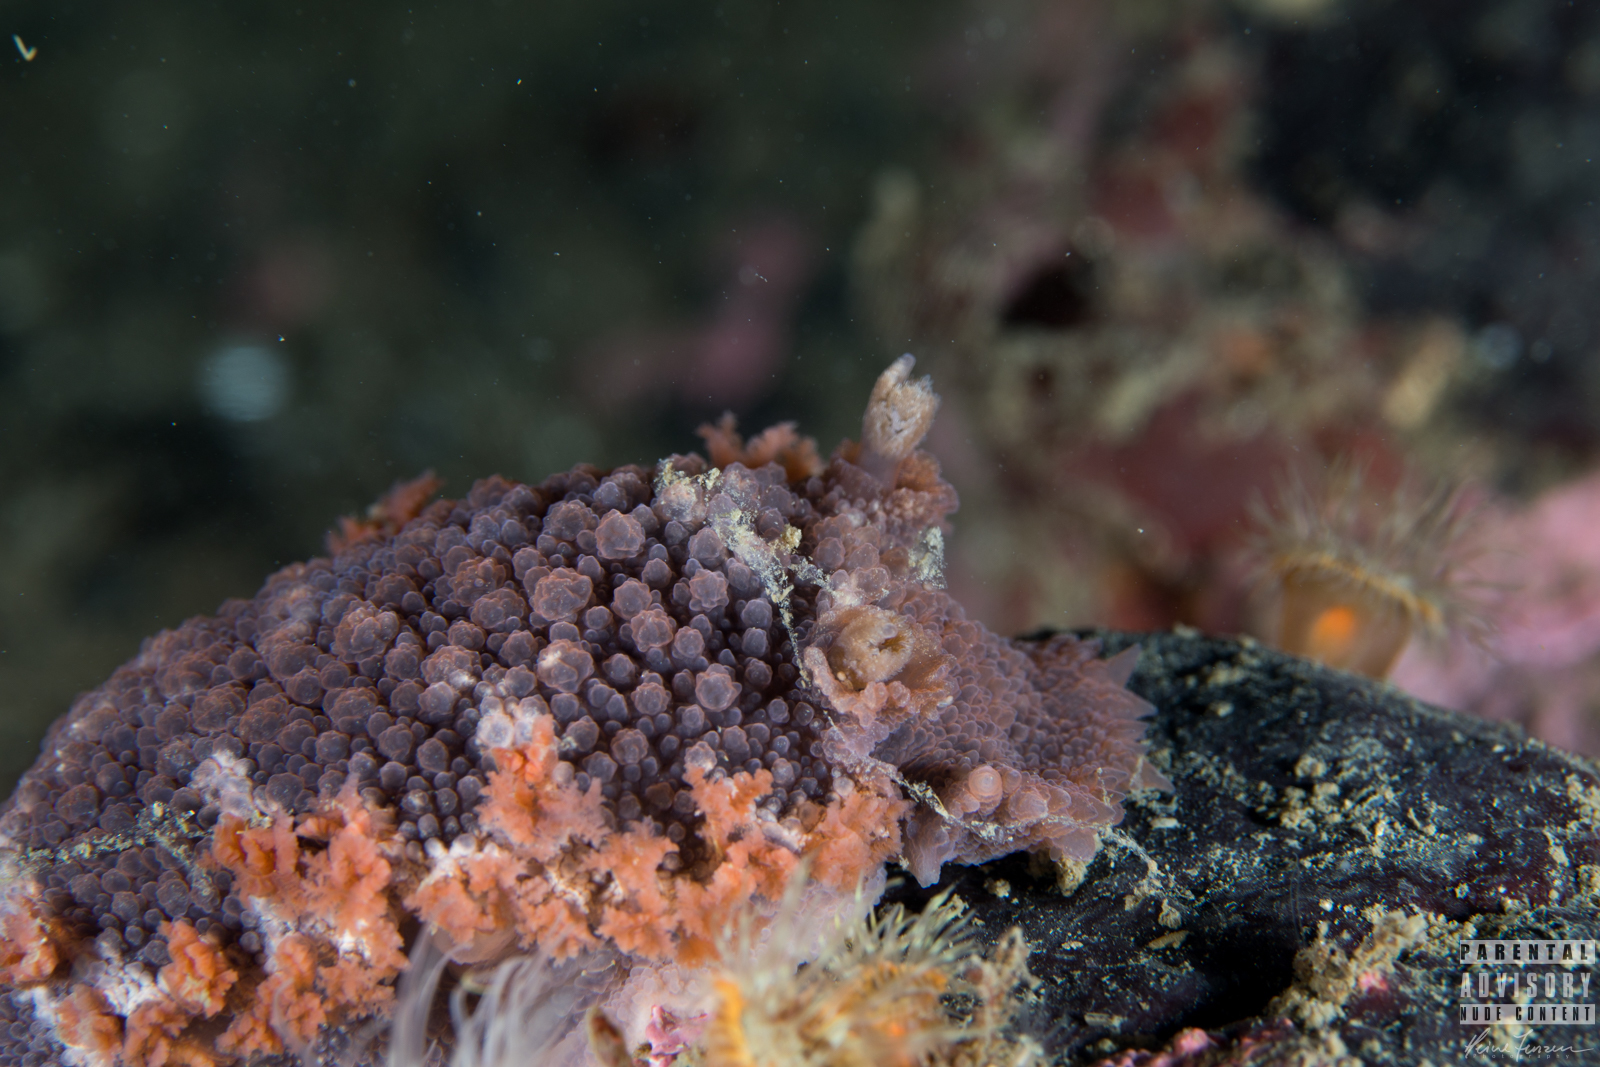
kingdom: Animalia
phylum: Mollusca
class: Gastropoda
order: Nudibranchia
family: Tritoniidae
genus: Tritonia
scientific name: Tritonia hombergii
